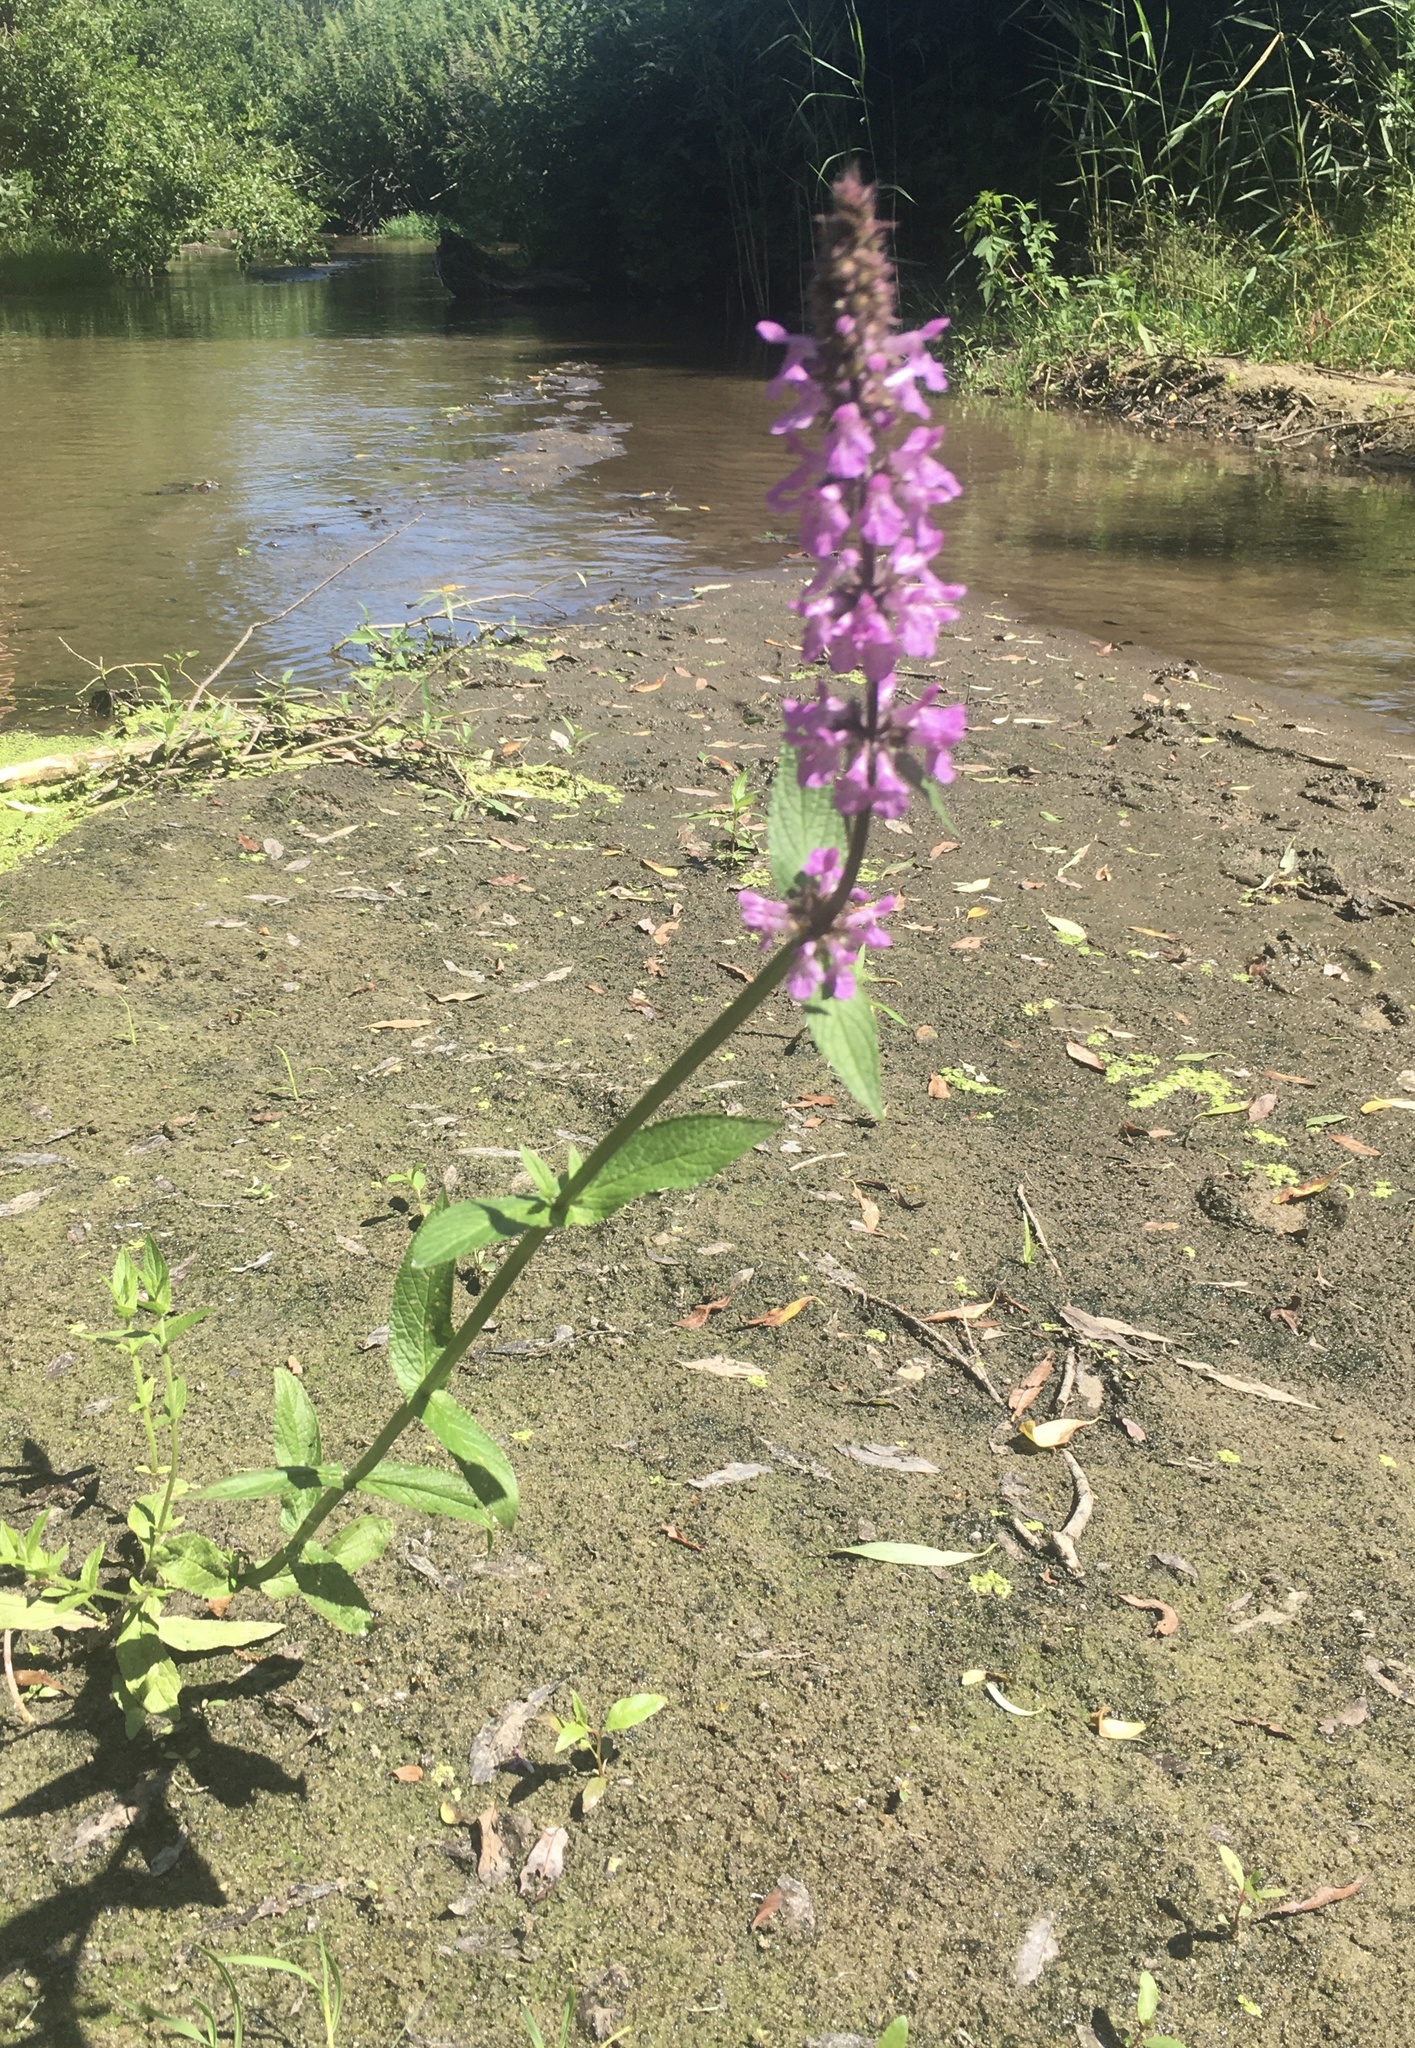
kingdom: Plantae
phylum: Tracheophyta
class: Magnoliopsida
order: Lamiales
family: Lamiaceae
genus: Stachys
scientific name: Stachys palustris
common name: Marsh woundwort
